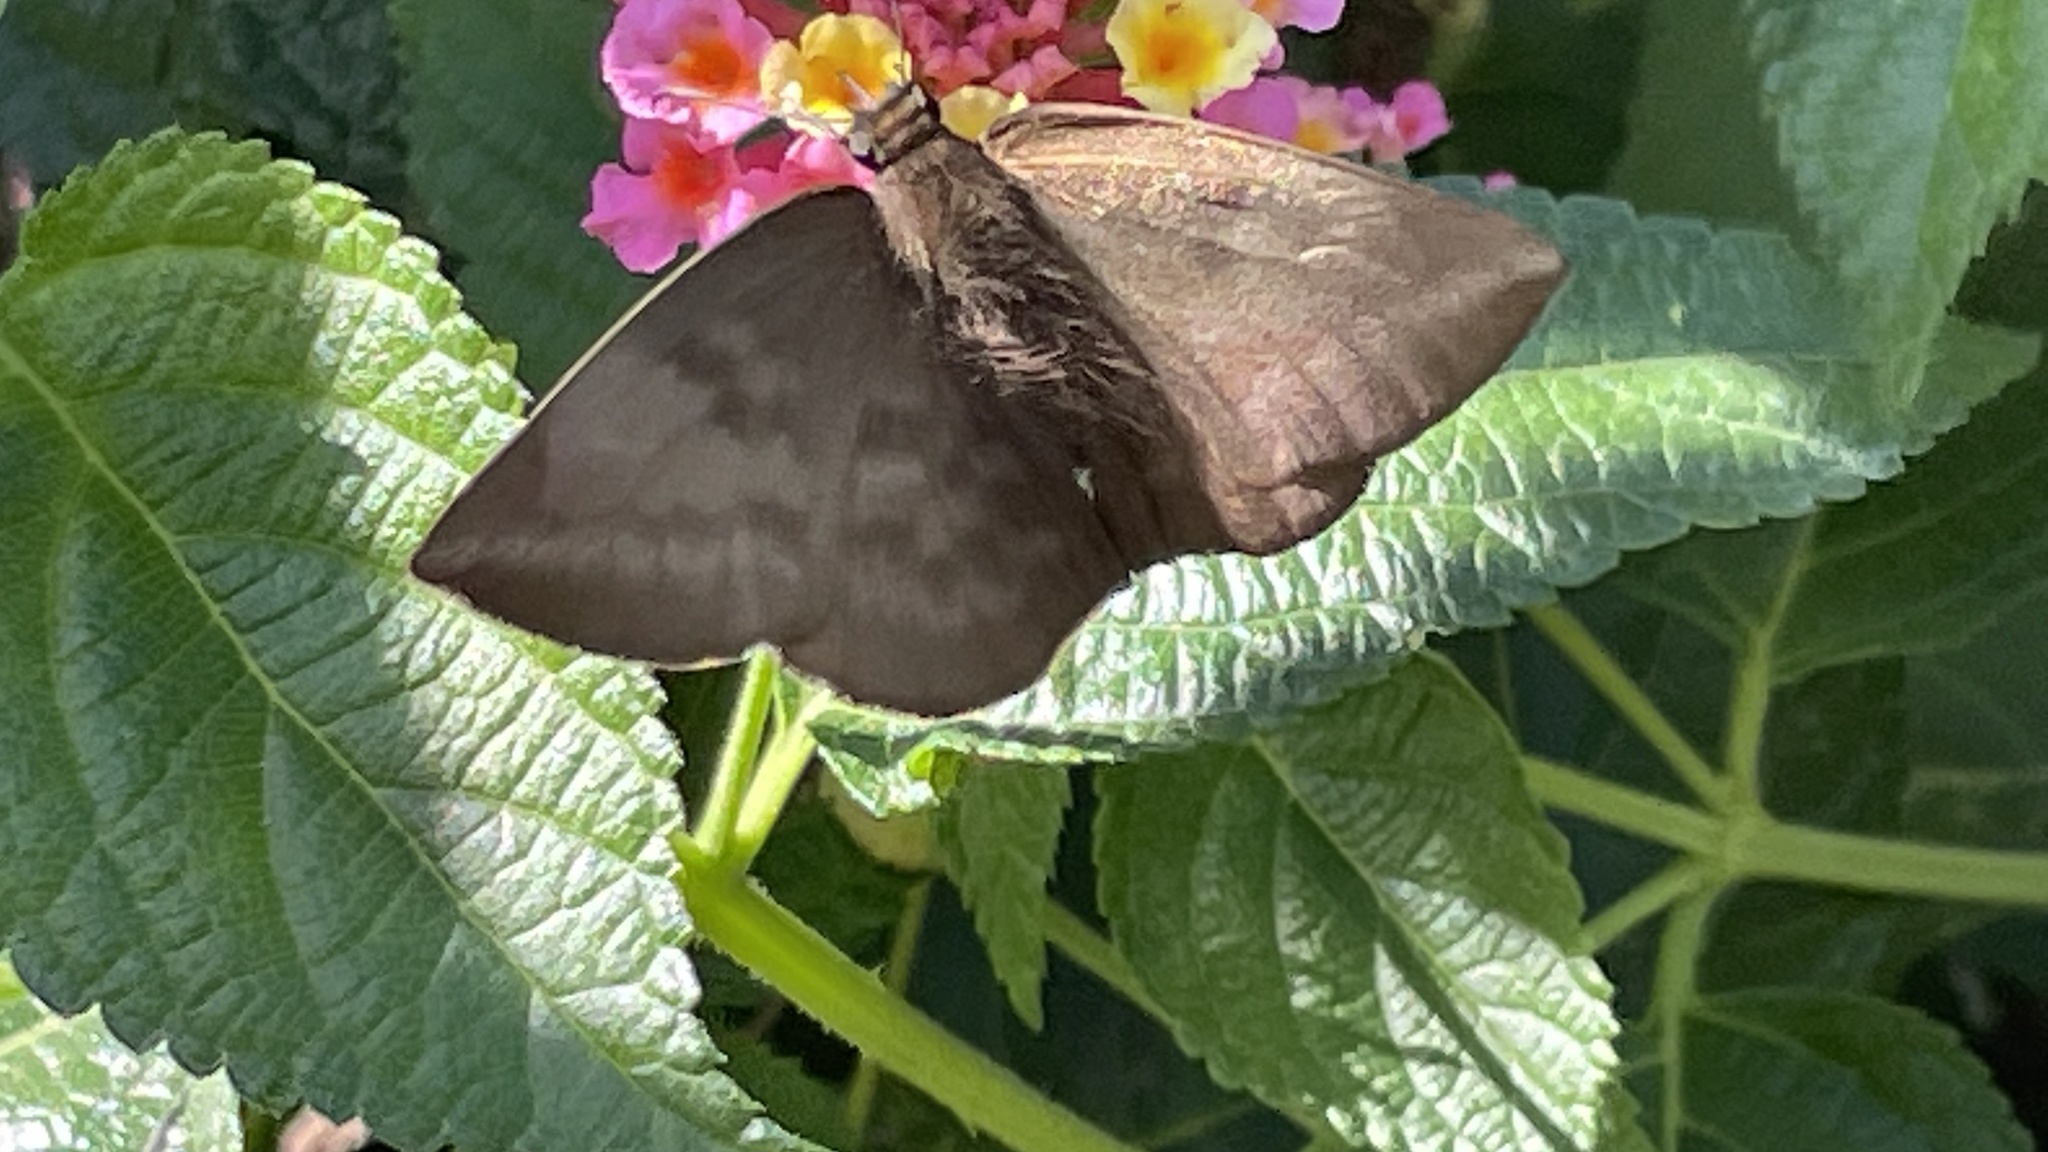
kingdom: Animalia
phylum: Arthropoda
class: Insecta
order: Lepidoptera
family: Hesperiidae
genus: Achlyodes
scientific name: Achlyodes pallida
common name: Pale sicklewing
